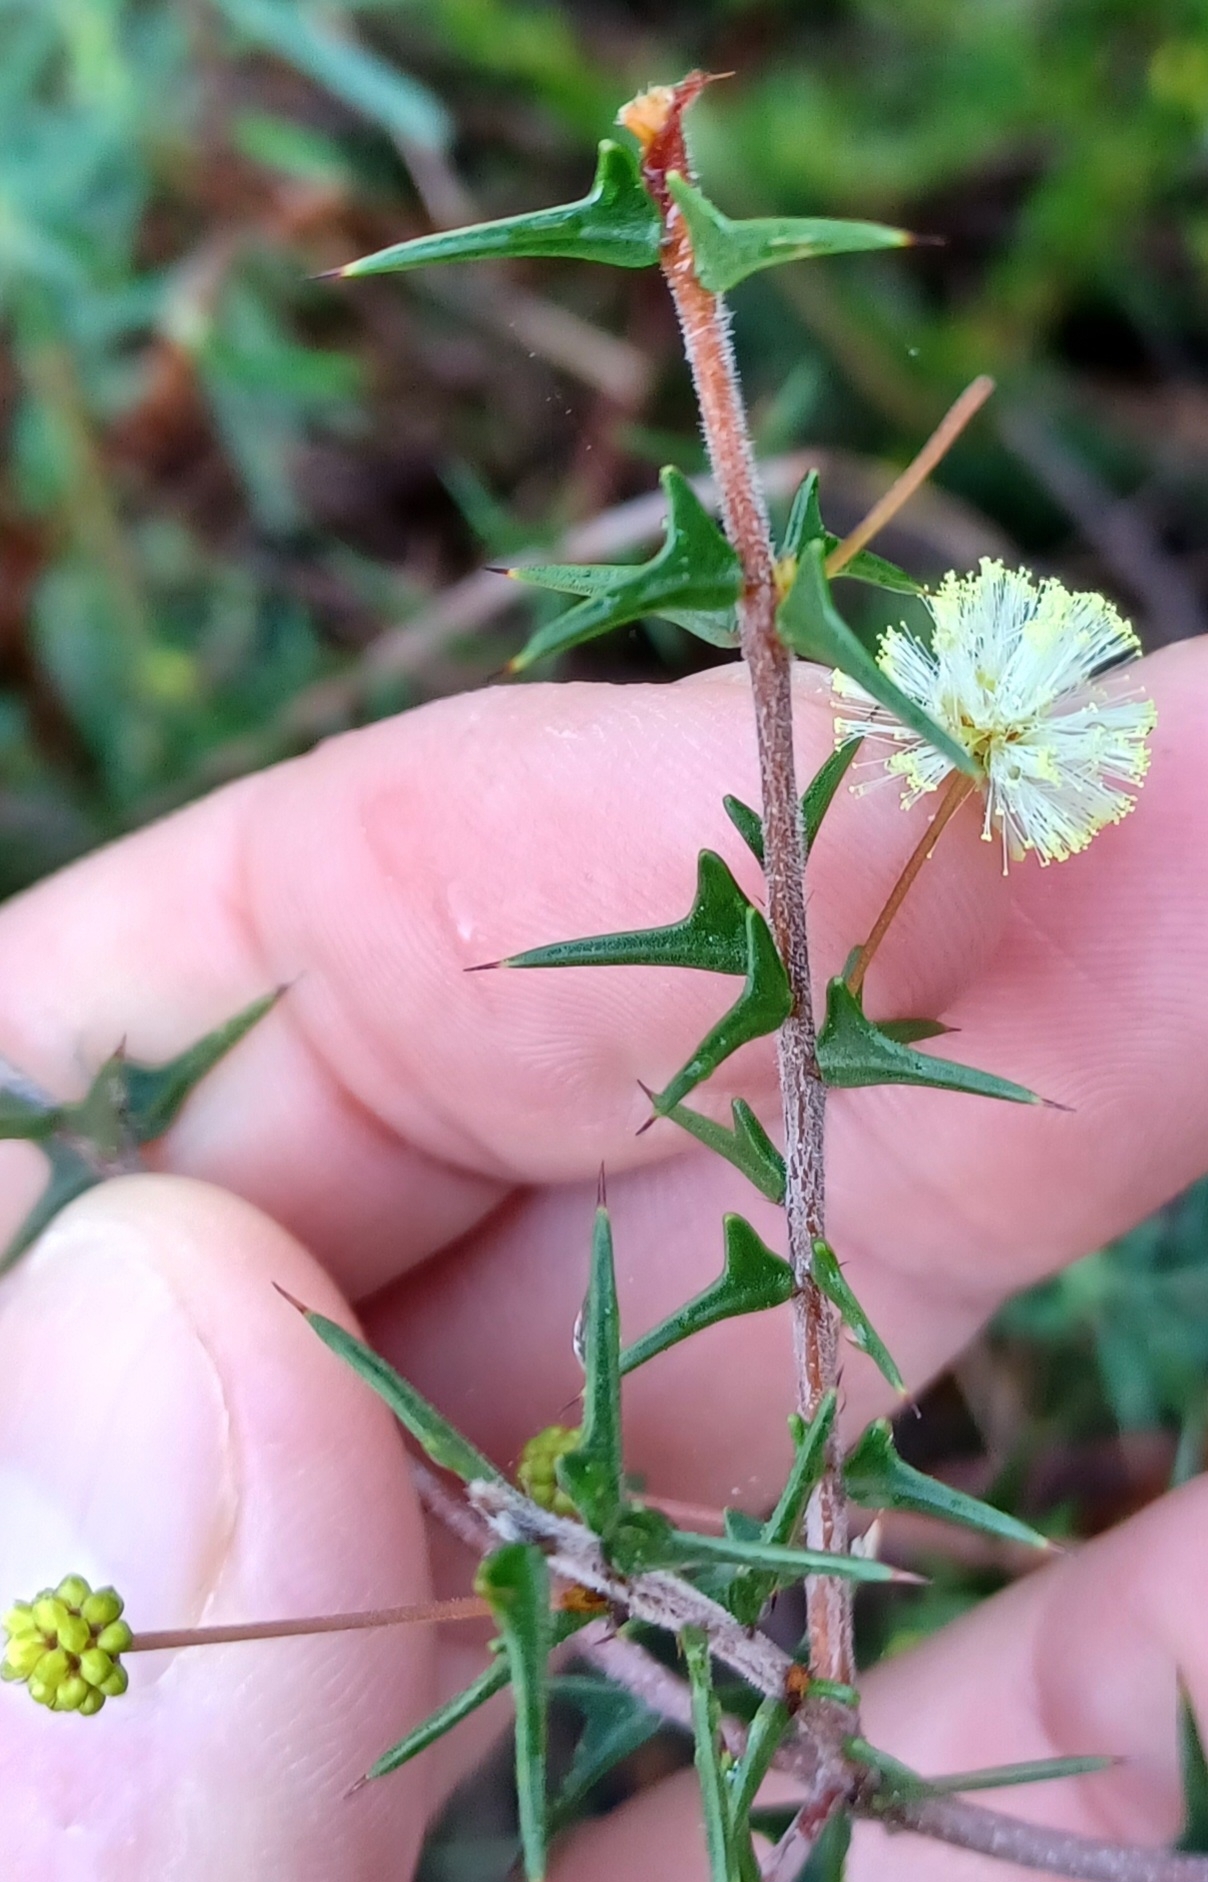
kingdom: Plantae
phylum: Tracheophyta
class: Magnoliopsida
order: Fabales
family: Fabaceae
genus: Acacia
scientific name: Acacia gunnii
